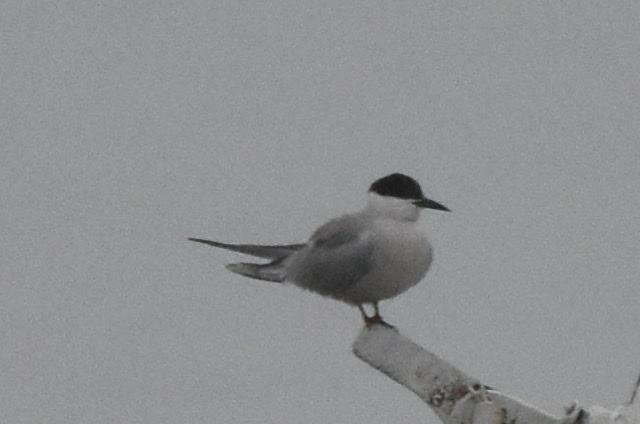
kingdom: Animalia
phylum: Chordata
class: Aves
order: Charadriiformes
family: Laridae
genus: Sterna
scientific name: Sterna hirundo
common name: Common tern
